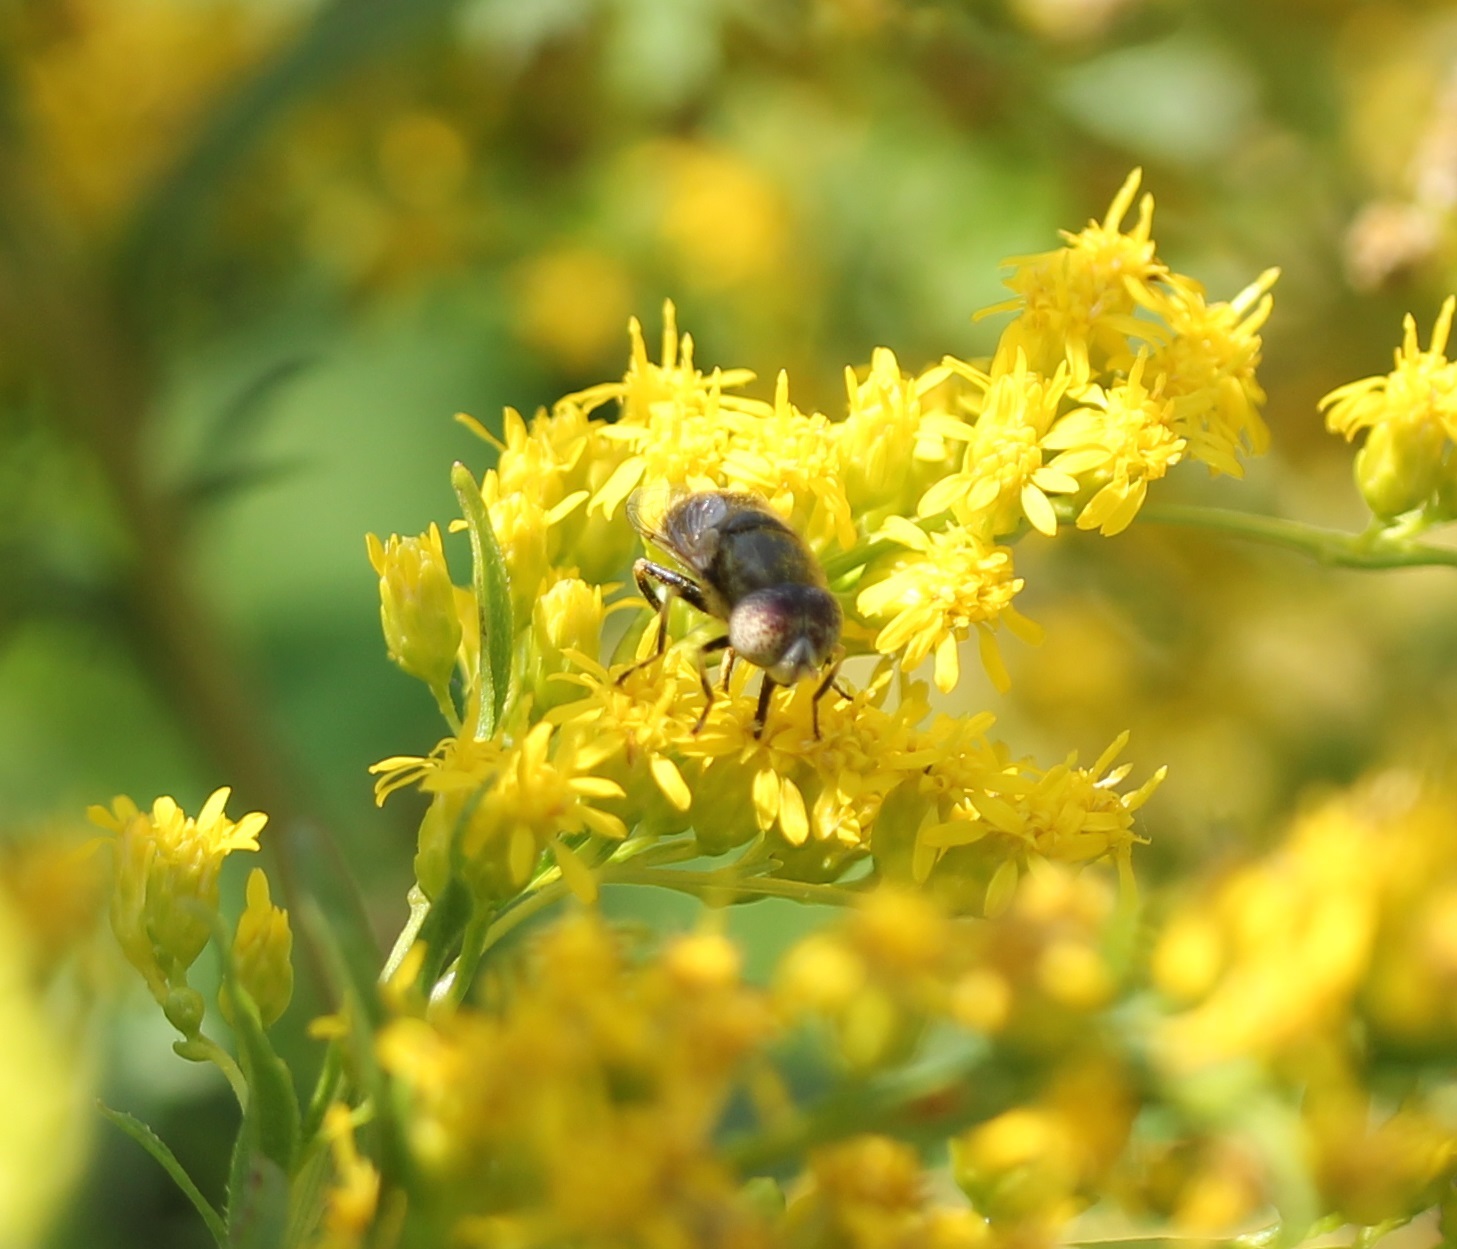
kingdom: Animalia
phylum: Arthropoda
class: Insecta
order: Diptera
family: Syrphidae
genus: Eristalinus
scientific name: Eristalinus aeneus
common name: Syrphid fly
